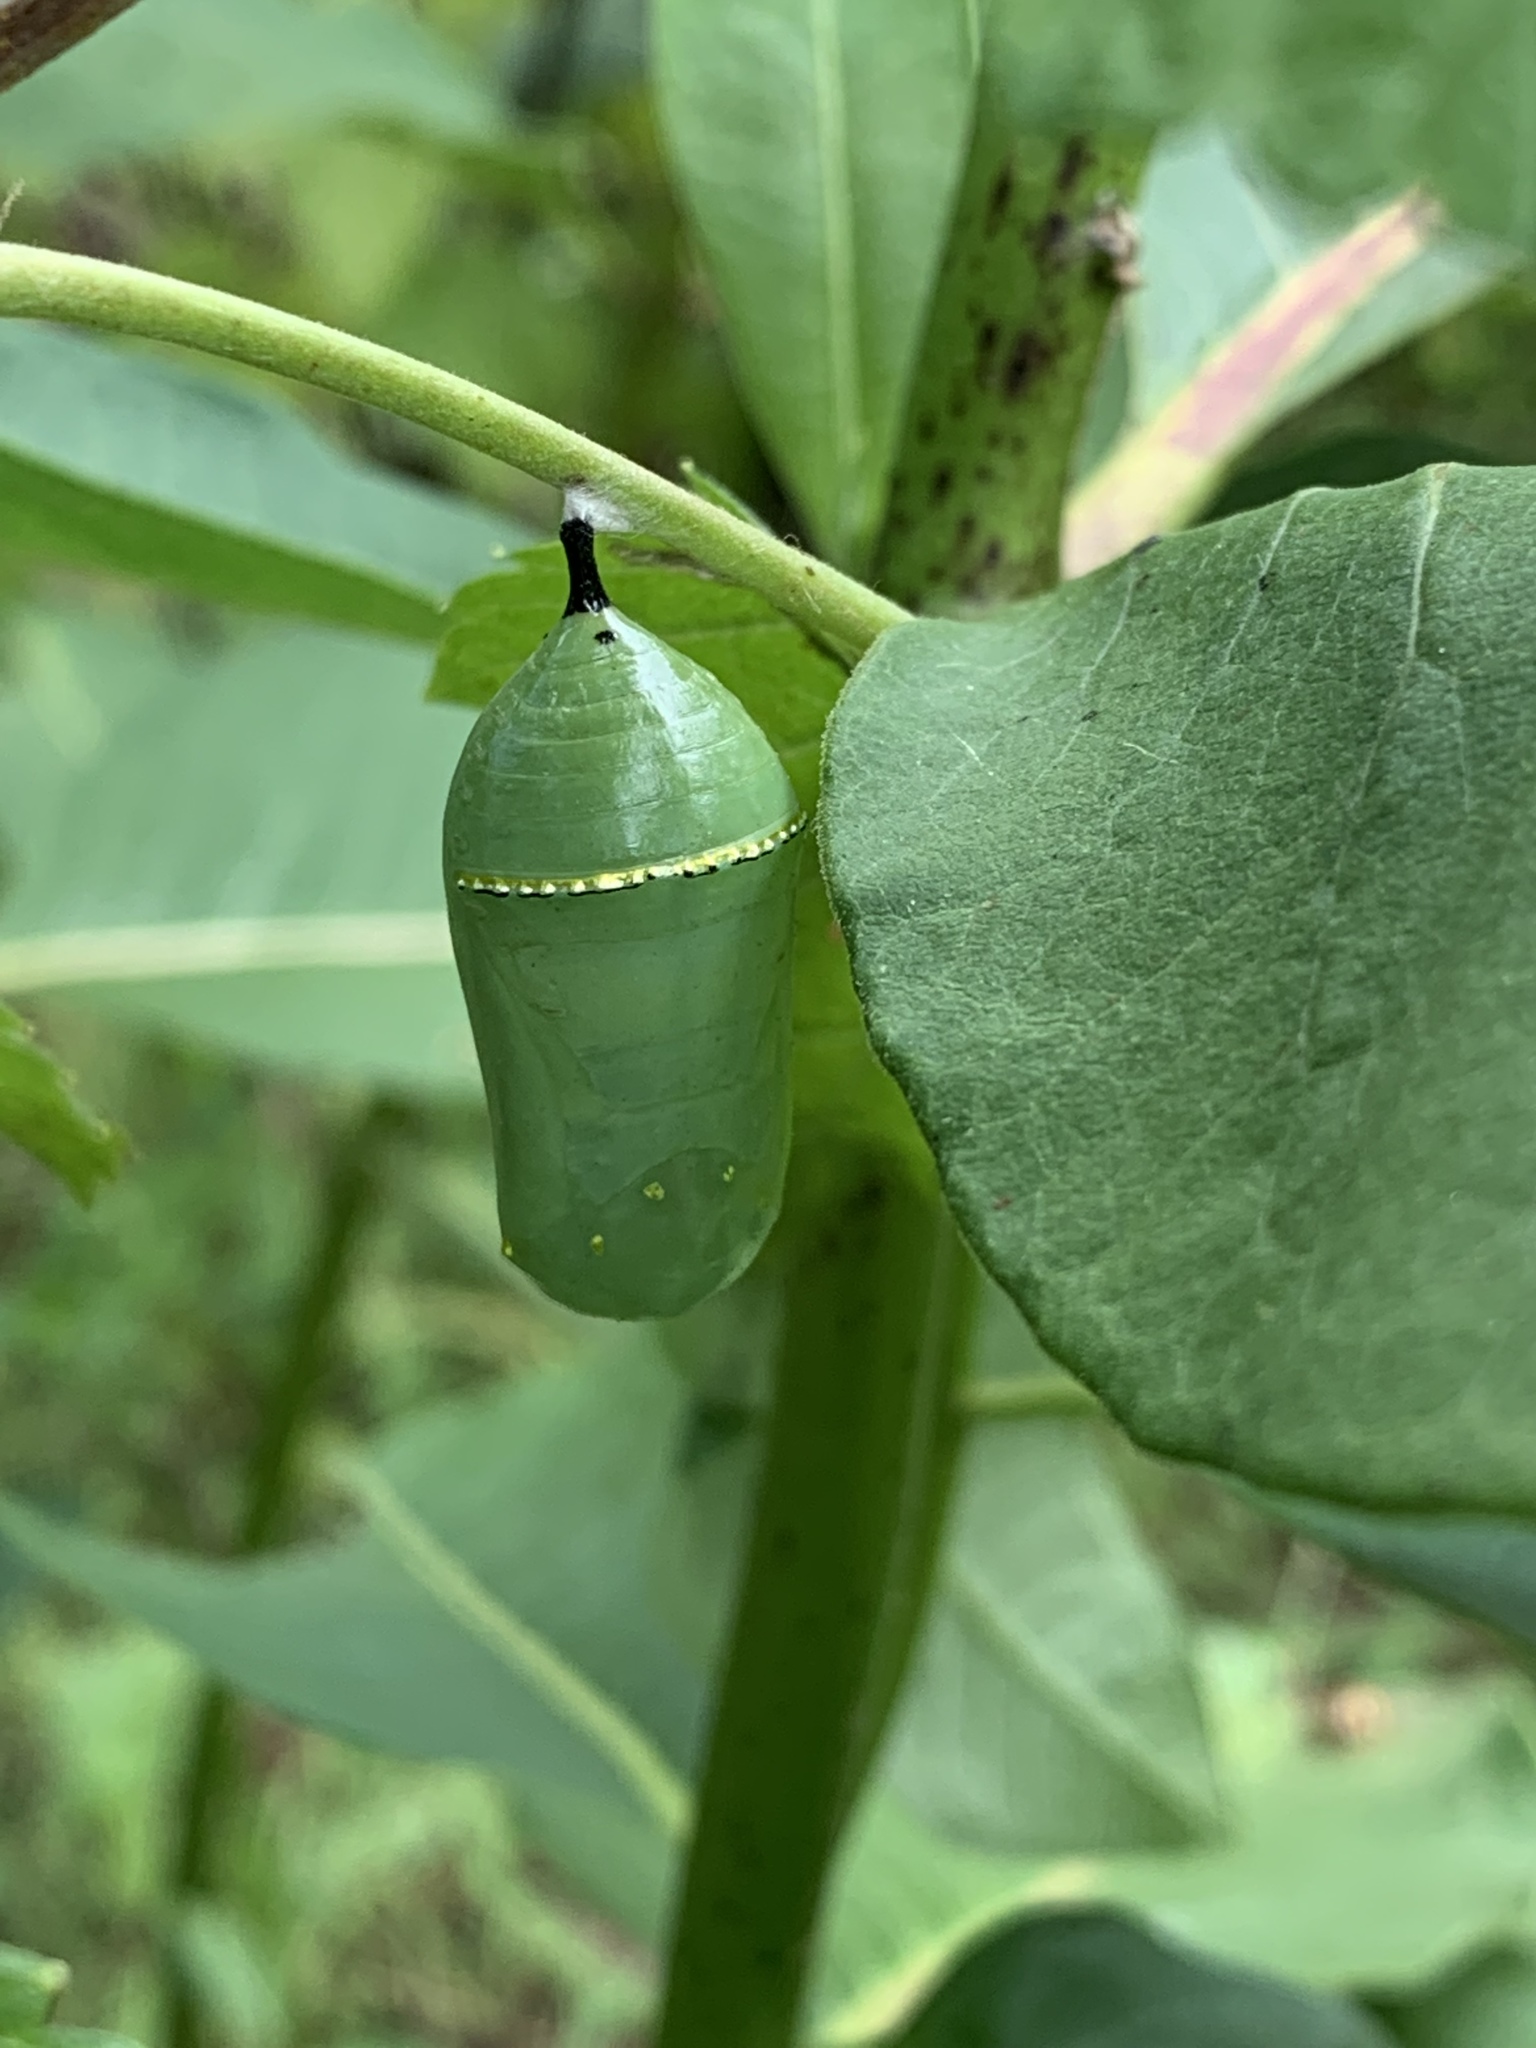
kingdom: Animalia
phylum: Arthropoda
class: Insecta
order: Lepidoptera
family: Nymphalidae
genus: Danaus
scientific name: Danaus plexippus
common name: Monarch
